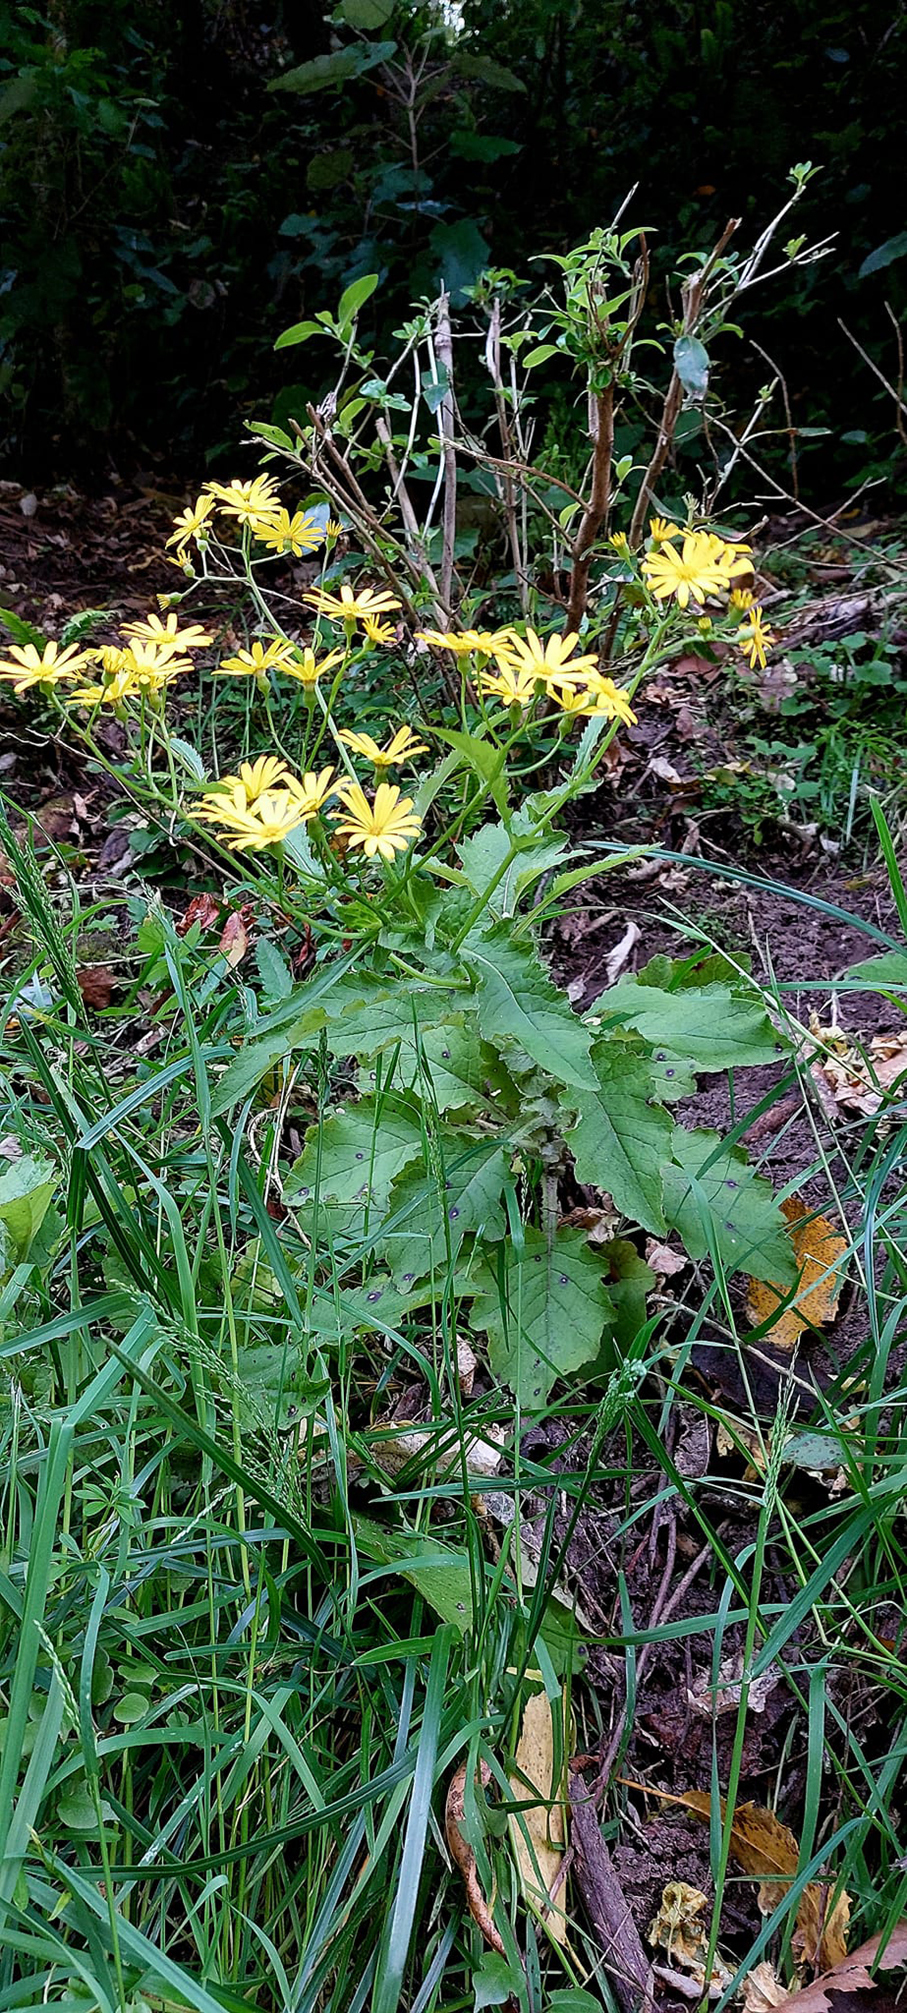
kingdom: Plantae
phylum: Tracheophyta
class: Magnoliopsida
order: Asterales
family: Asteraceae
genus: Senecio
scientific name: Senecio rufiglandulosus
